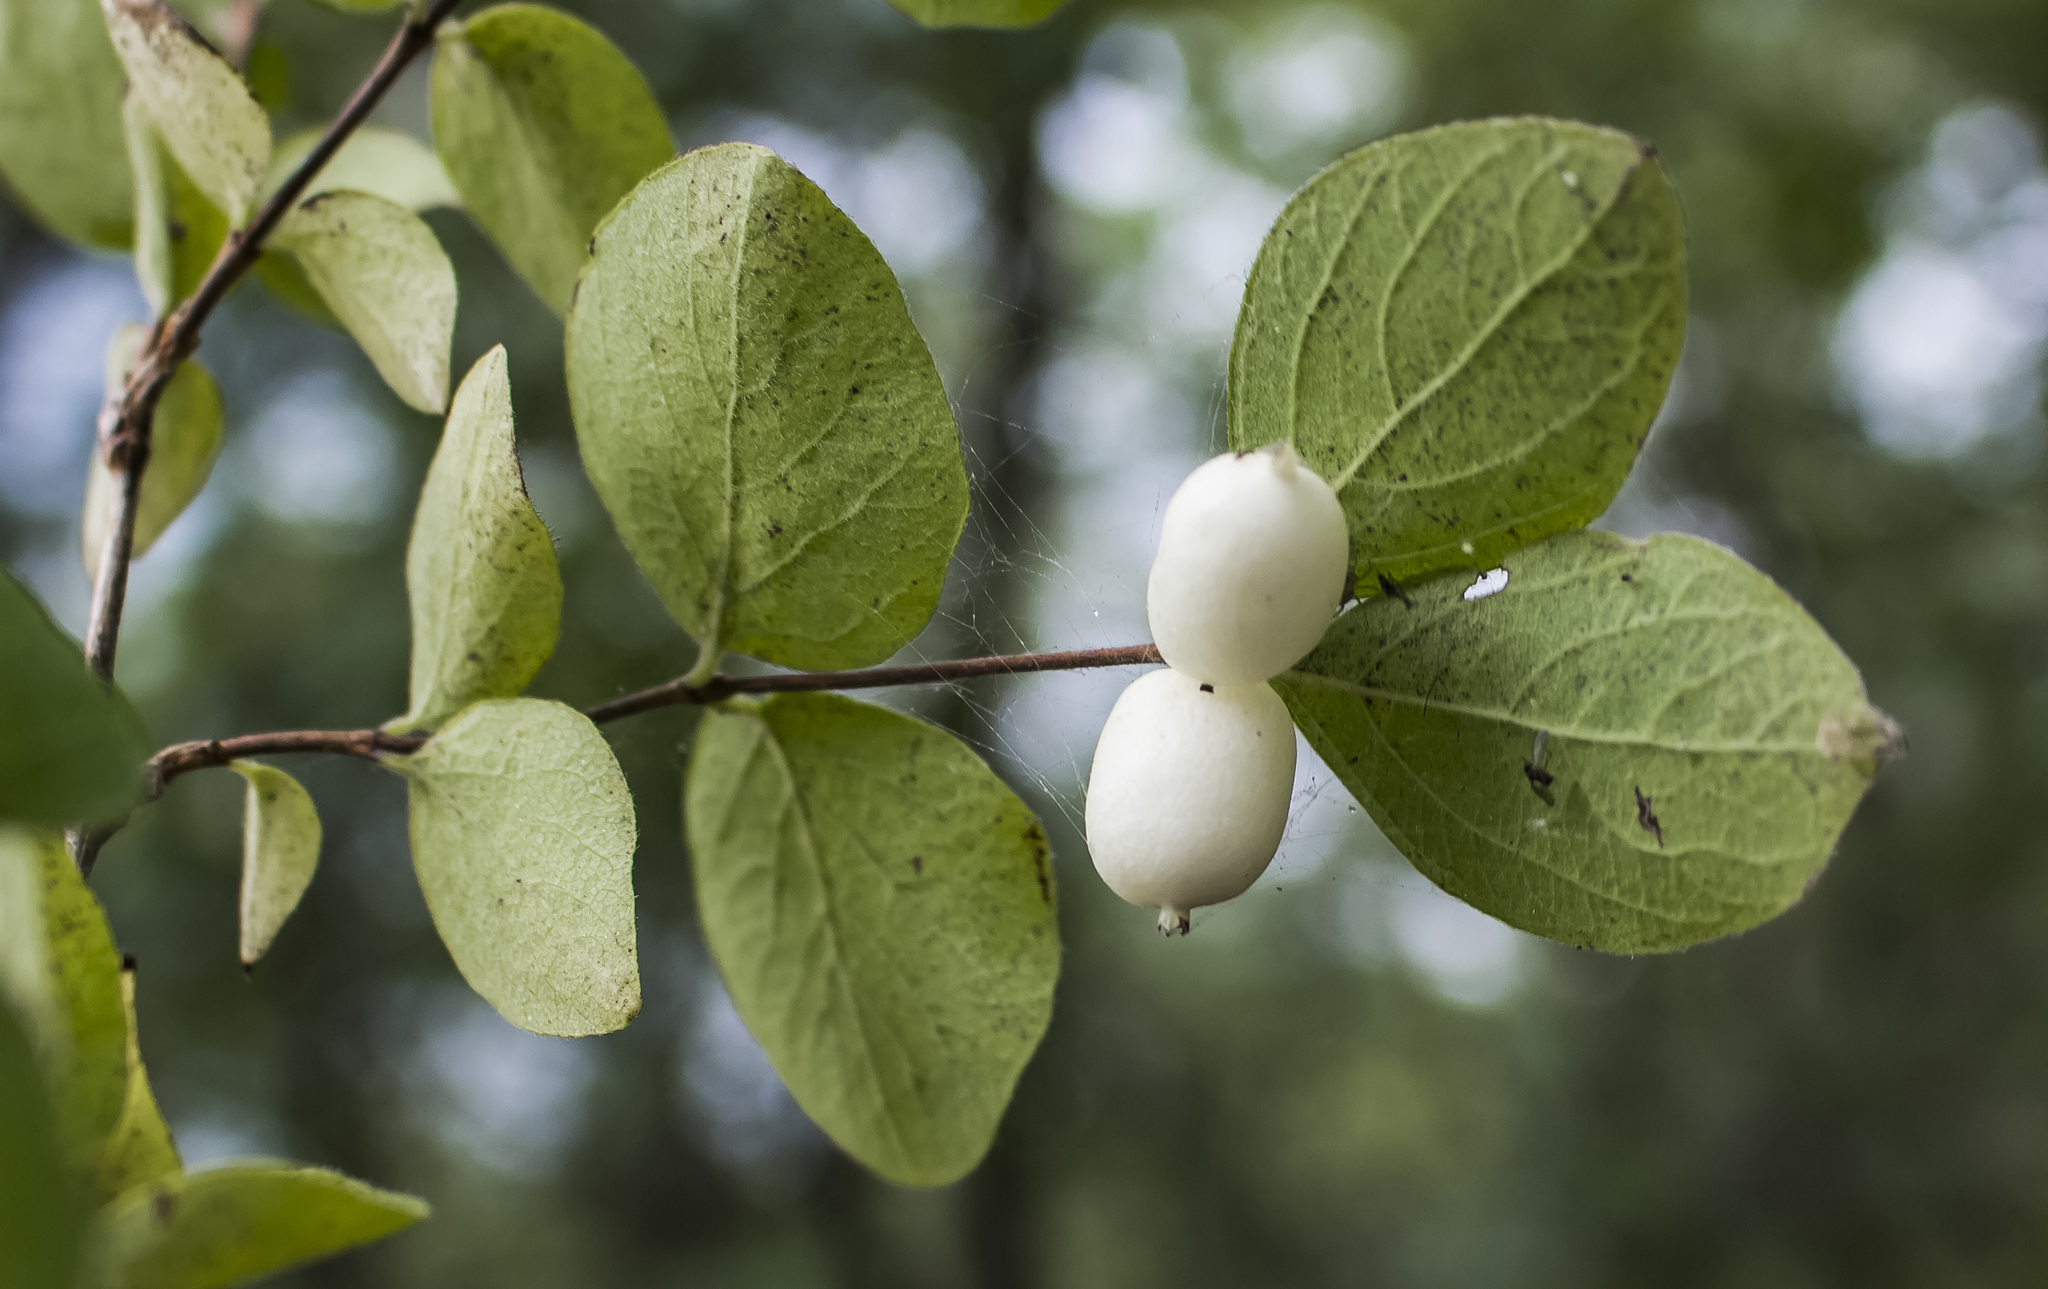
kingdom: Plantae
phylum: Tracheophyta
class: Magnoliopsida
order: Dipsacales
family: Caprifoliaceae
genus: Symphoricarpos
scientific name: Symphoricarpos albus
